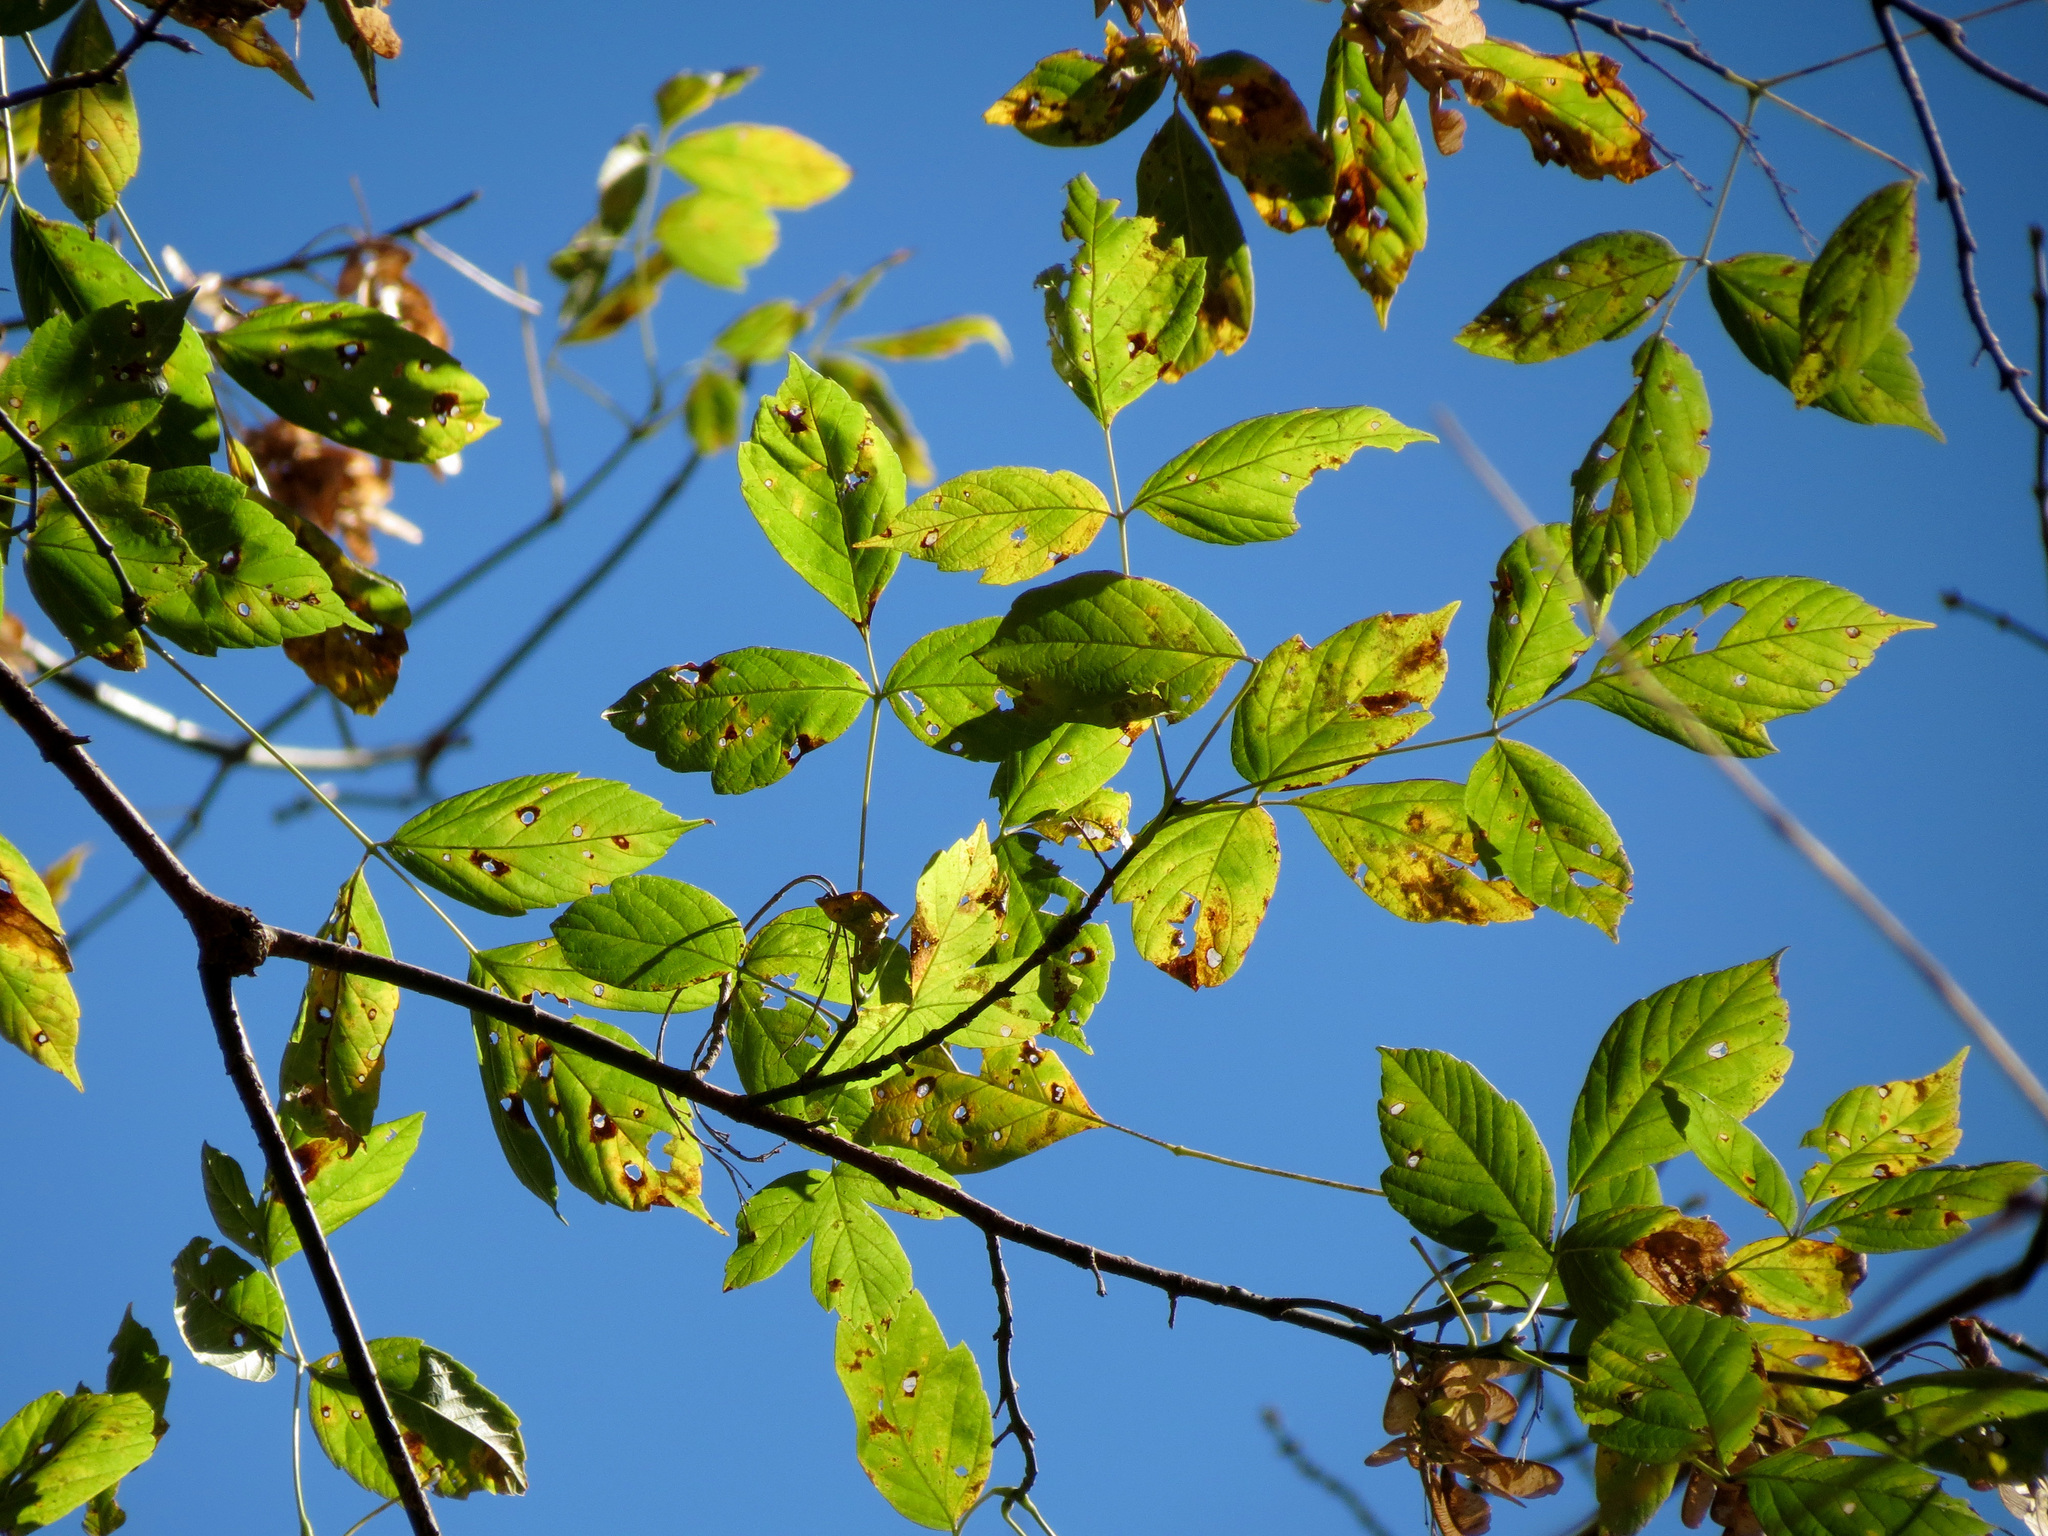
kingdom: Plantae
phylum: Tracheophyta
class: Magnoliopsida
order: Sapindales
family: Sapindaceae
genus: Acer
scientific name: Acer negundo
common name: Ashleaf maple
